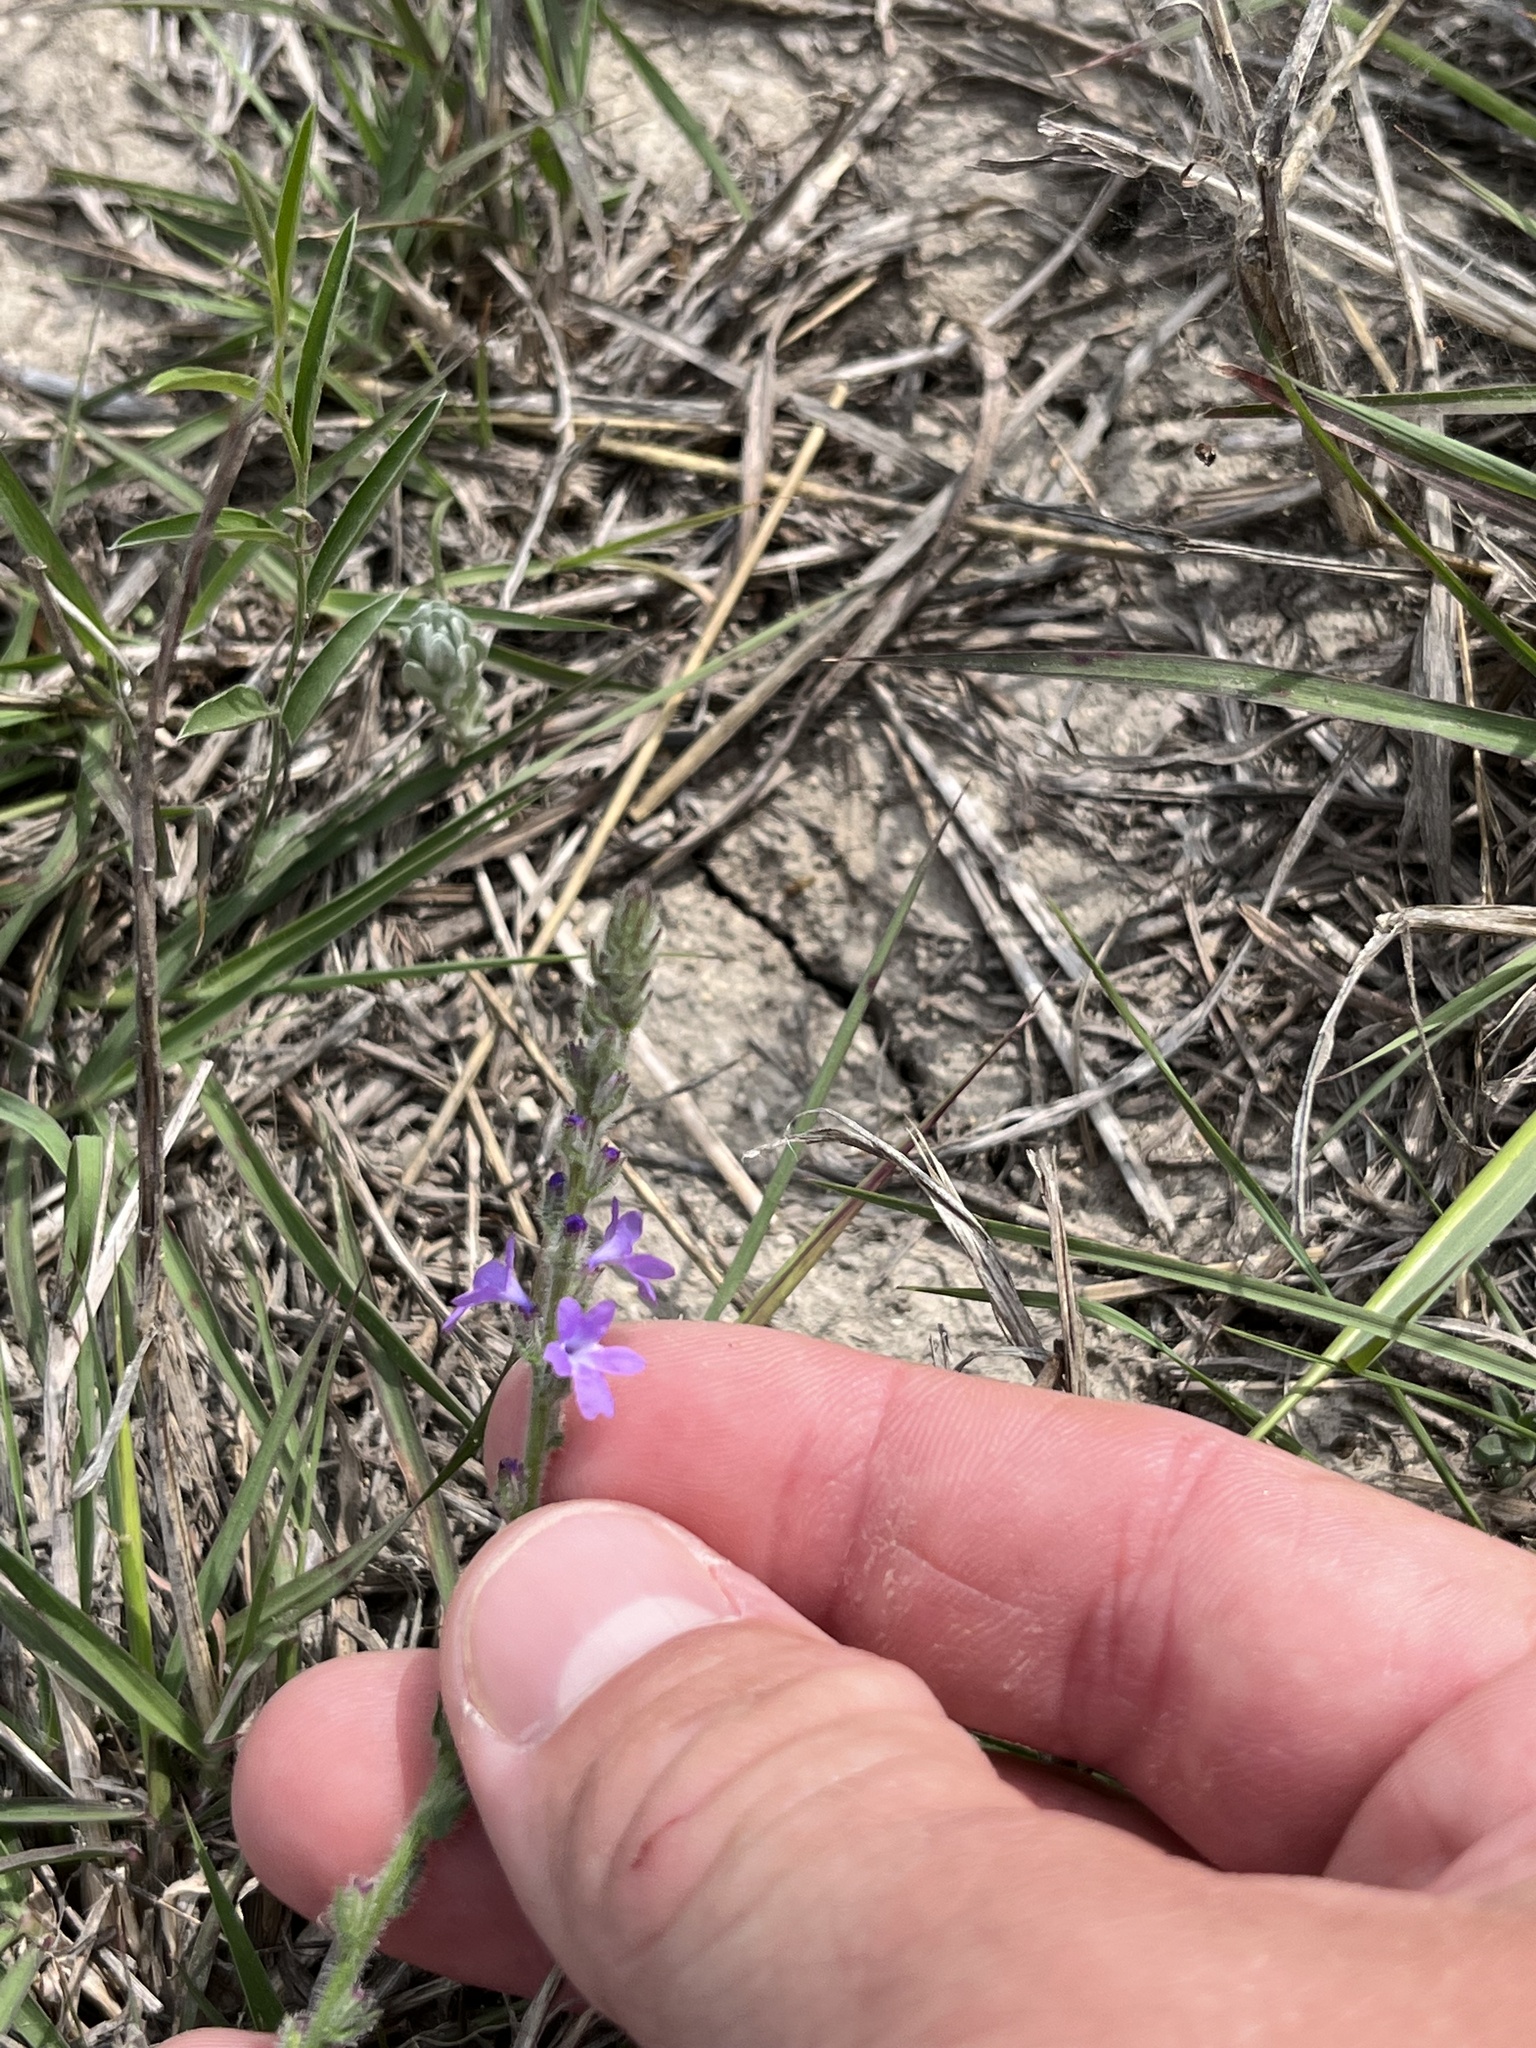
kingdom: Plantae
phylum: Tracheophyta
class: Magnoliopsida
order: Lamiales
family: Verbenaceae
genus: Verbena
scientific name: Verbena canescens
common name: Gray vervain
